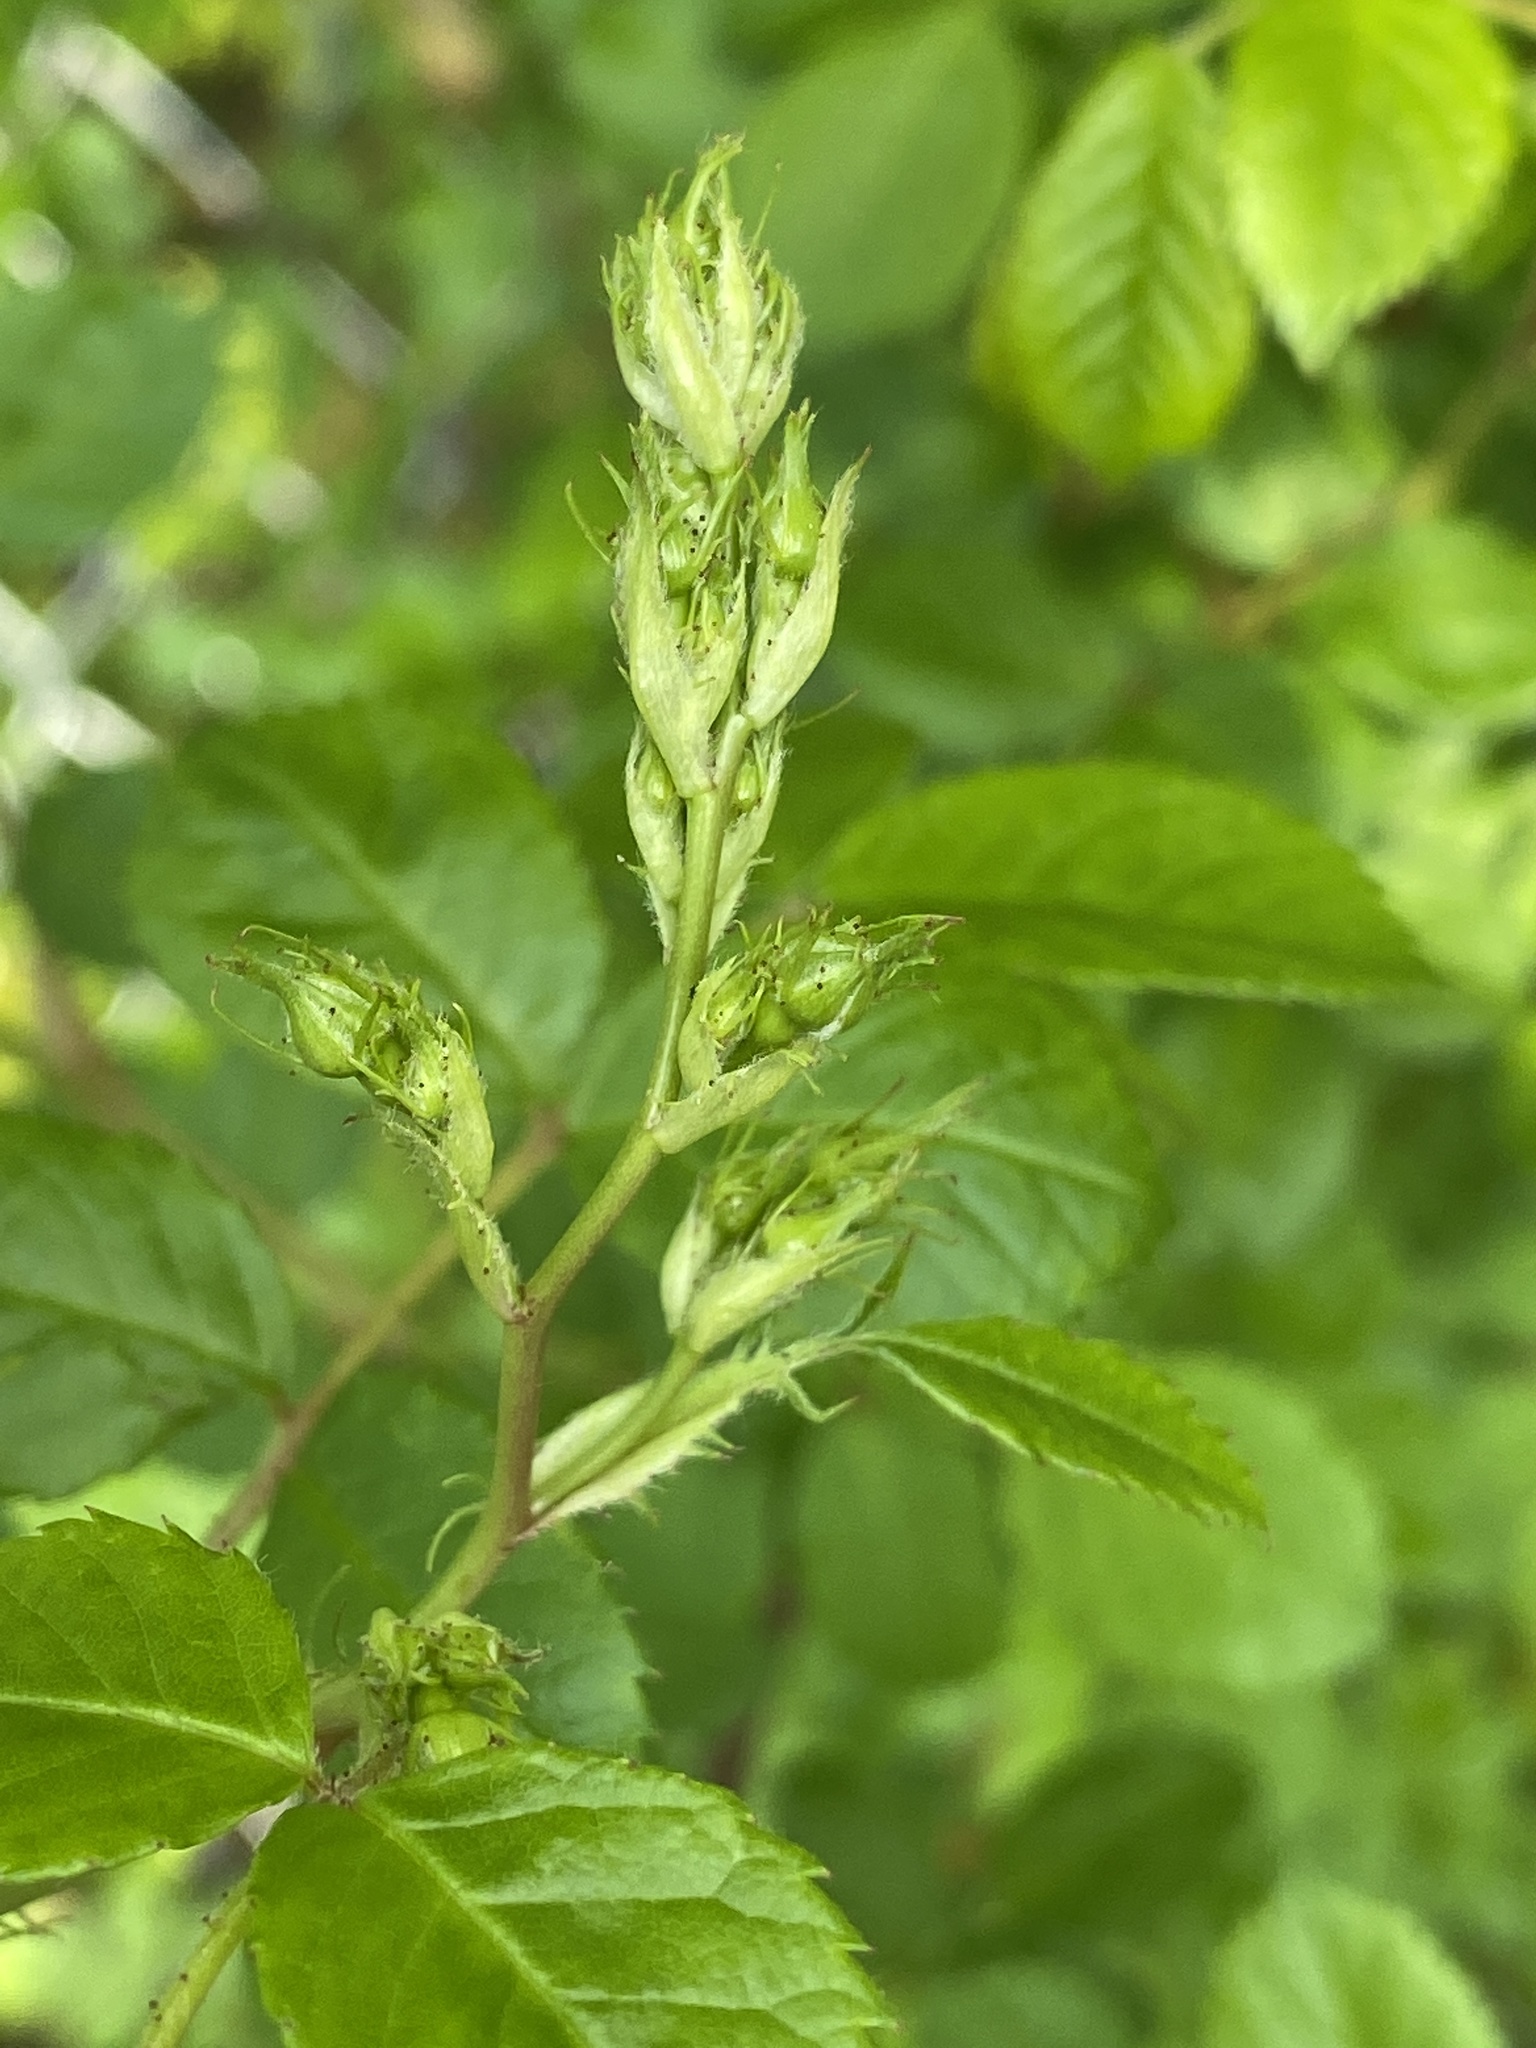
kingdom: Plantae
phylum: Tracheophyta
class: Magnoliopsida
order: Rosales
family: Rosaceae
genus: Rosa
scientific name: Rosa multiflora
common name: Multiflora rose
